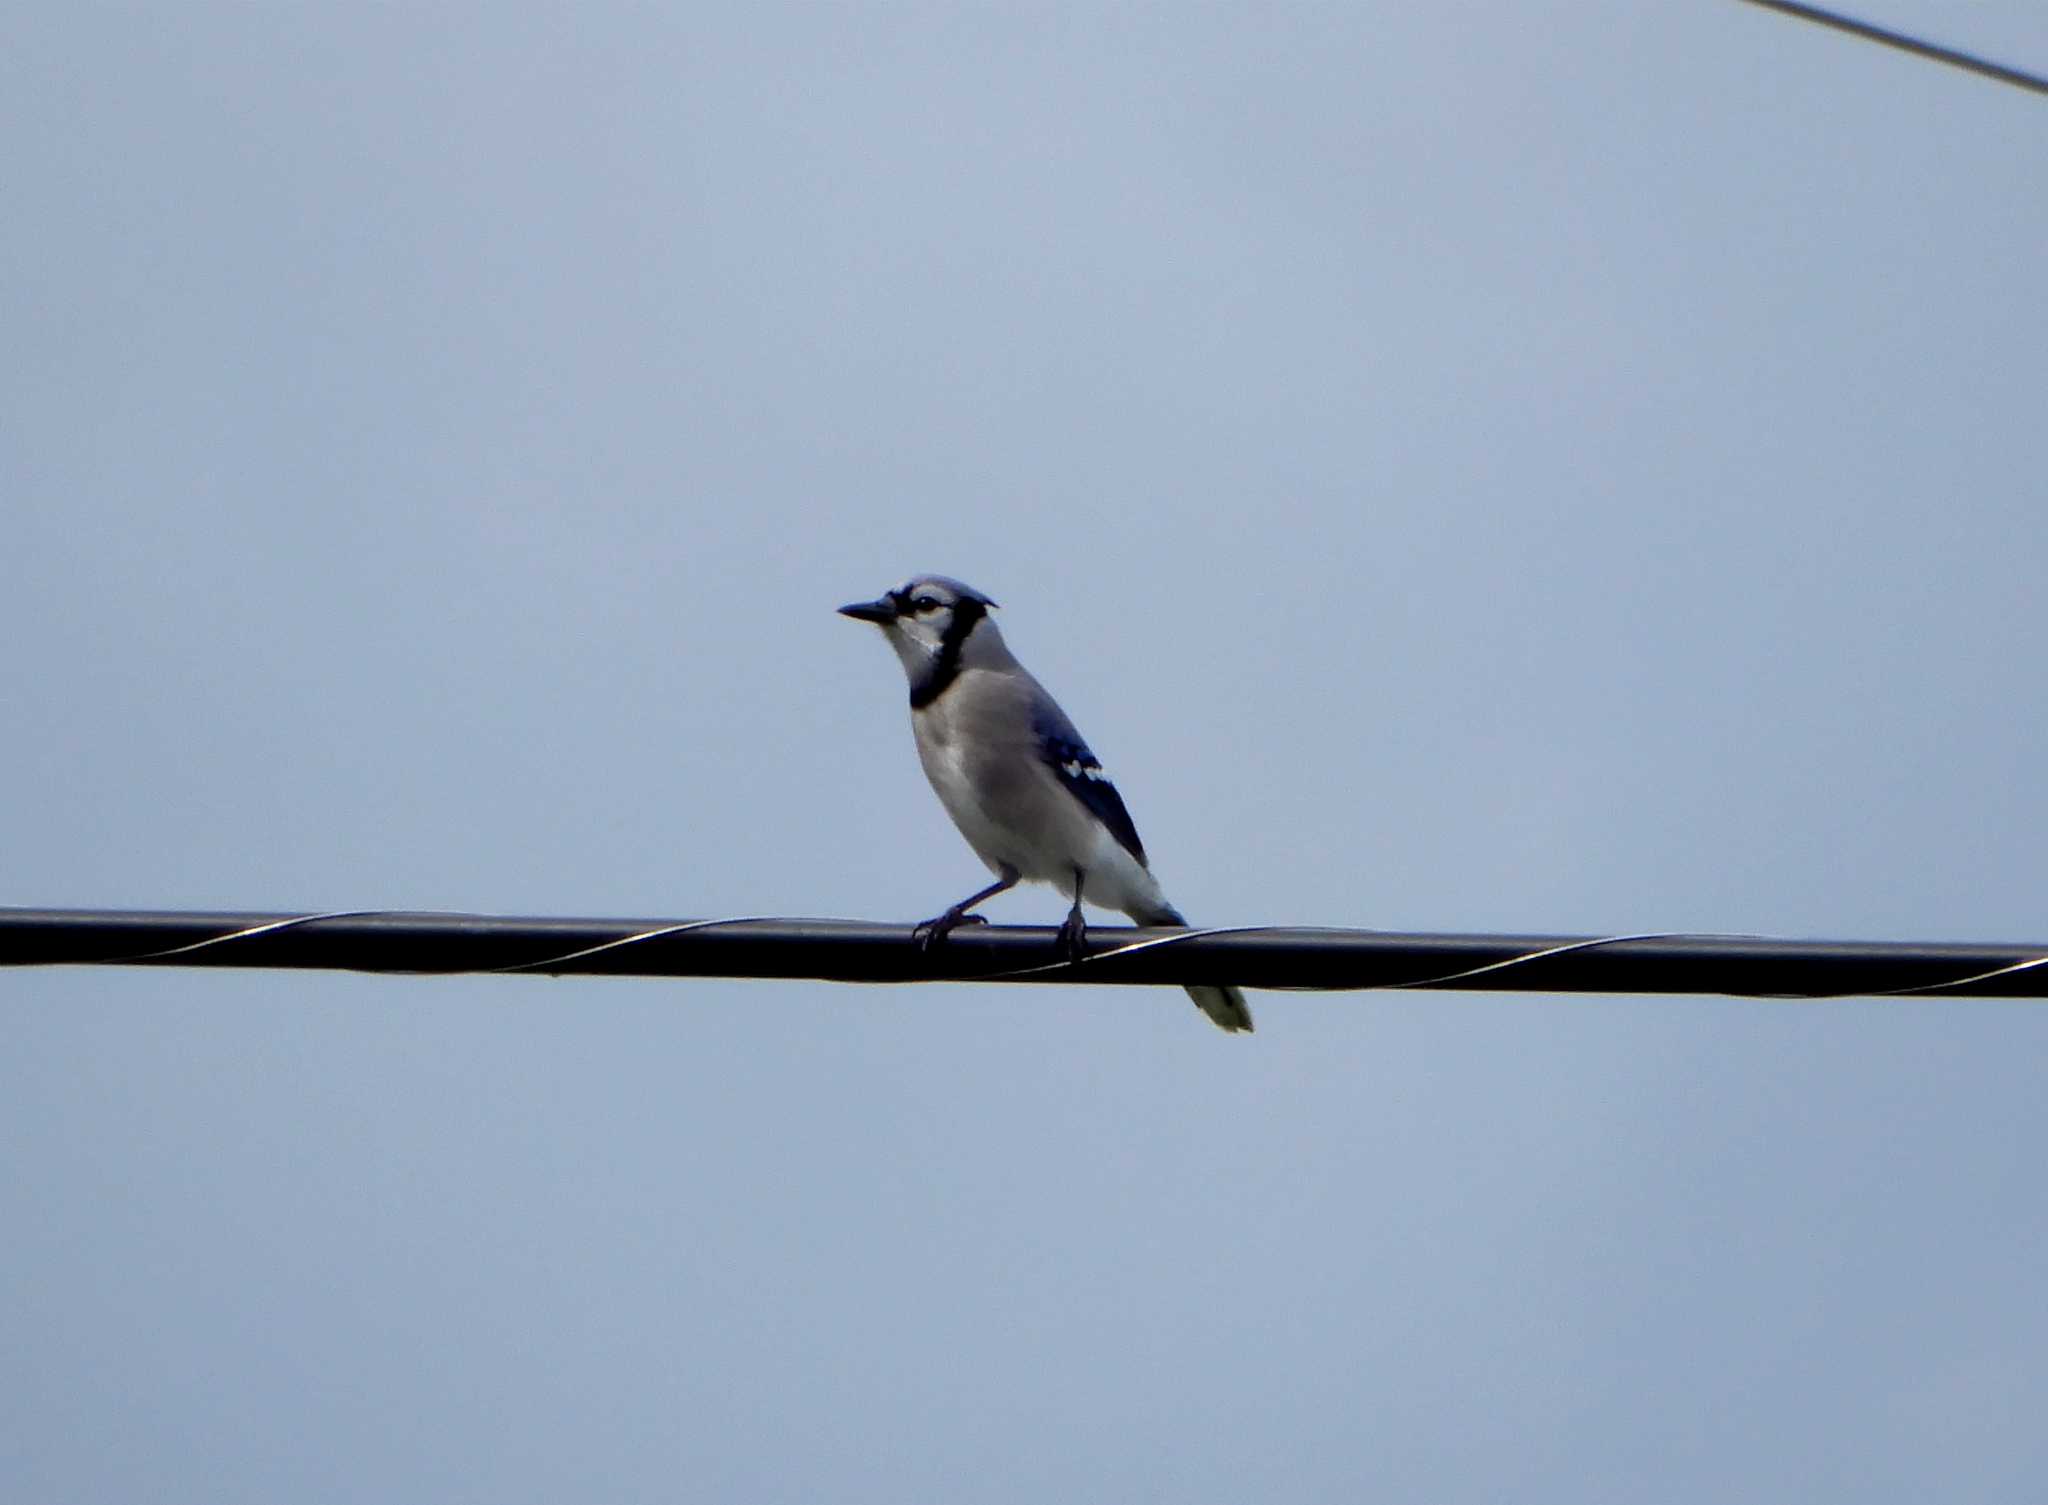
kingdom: Animalia
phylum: Chordata
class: Aves
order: Passeriformes
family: Corvidae
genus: Cyanocitta
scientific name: Cyanocitta cristata
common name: Blue jay
